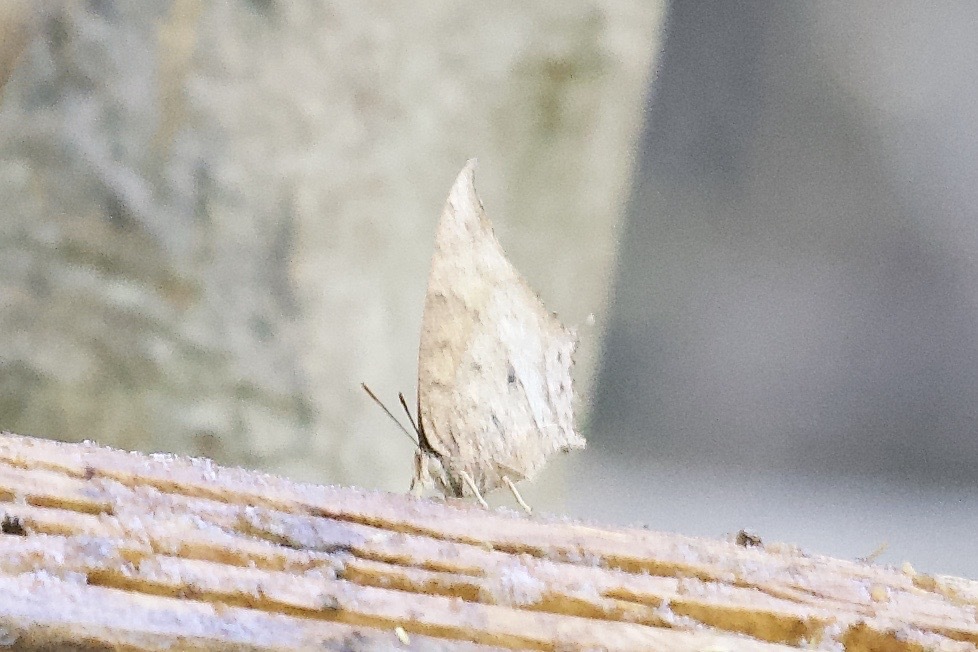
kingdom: Animalia
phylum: Arthropoda
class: Insecta
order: Lepidoptera
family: Nymphalidae
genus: Anaea
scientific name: Anaea aidea
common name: Tropical leafwing
